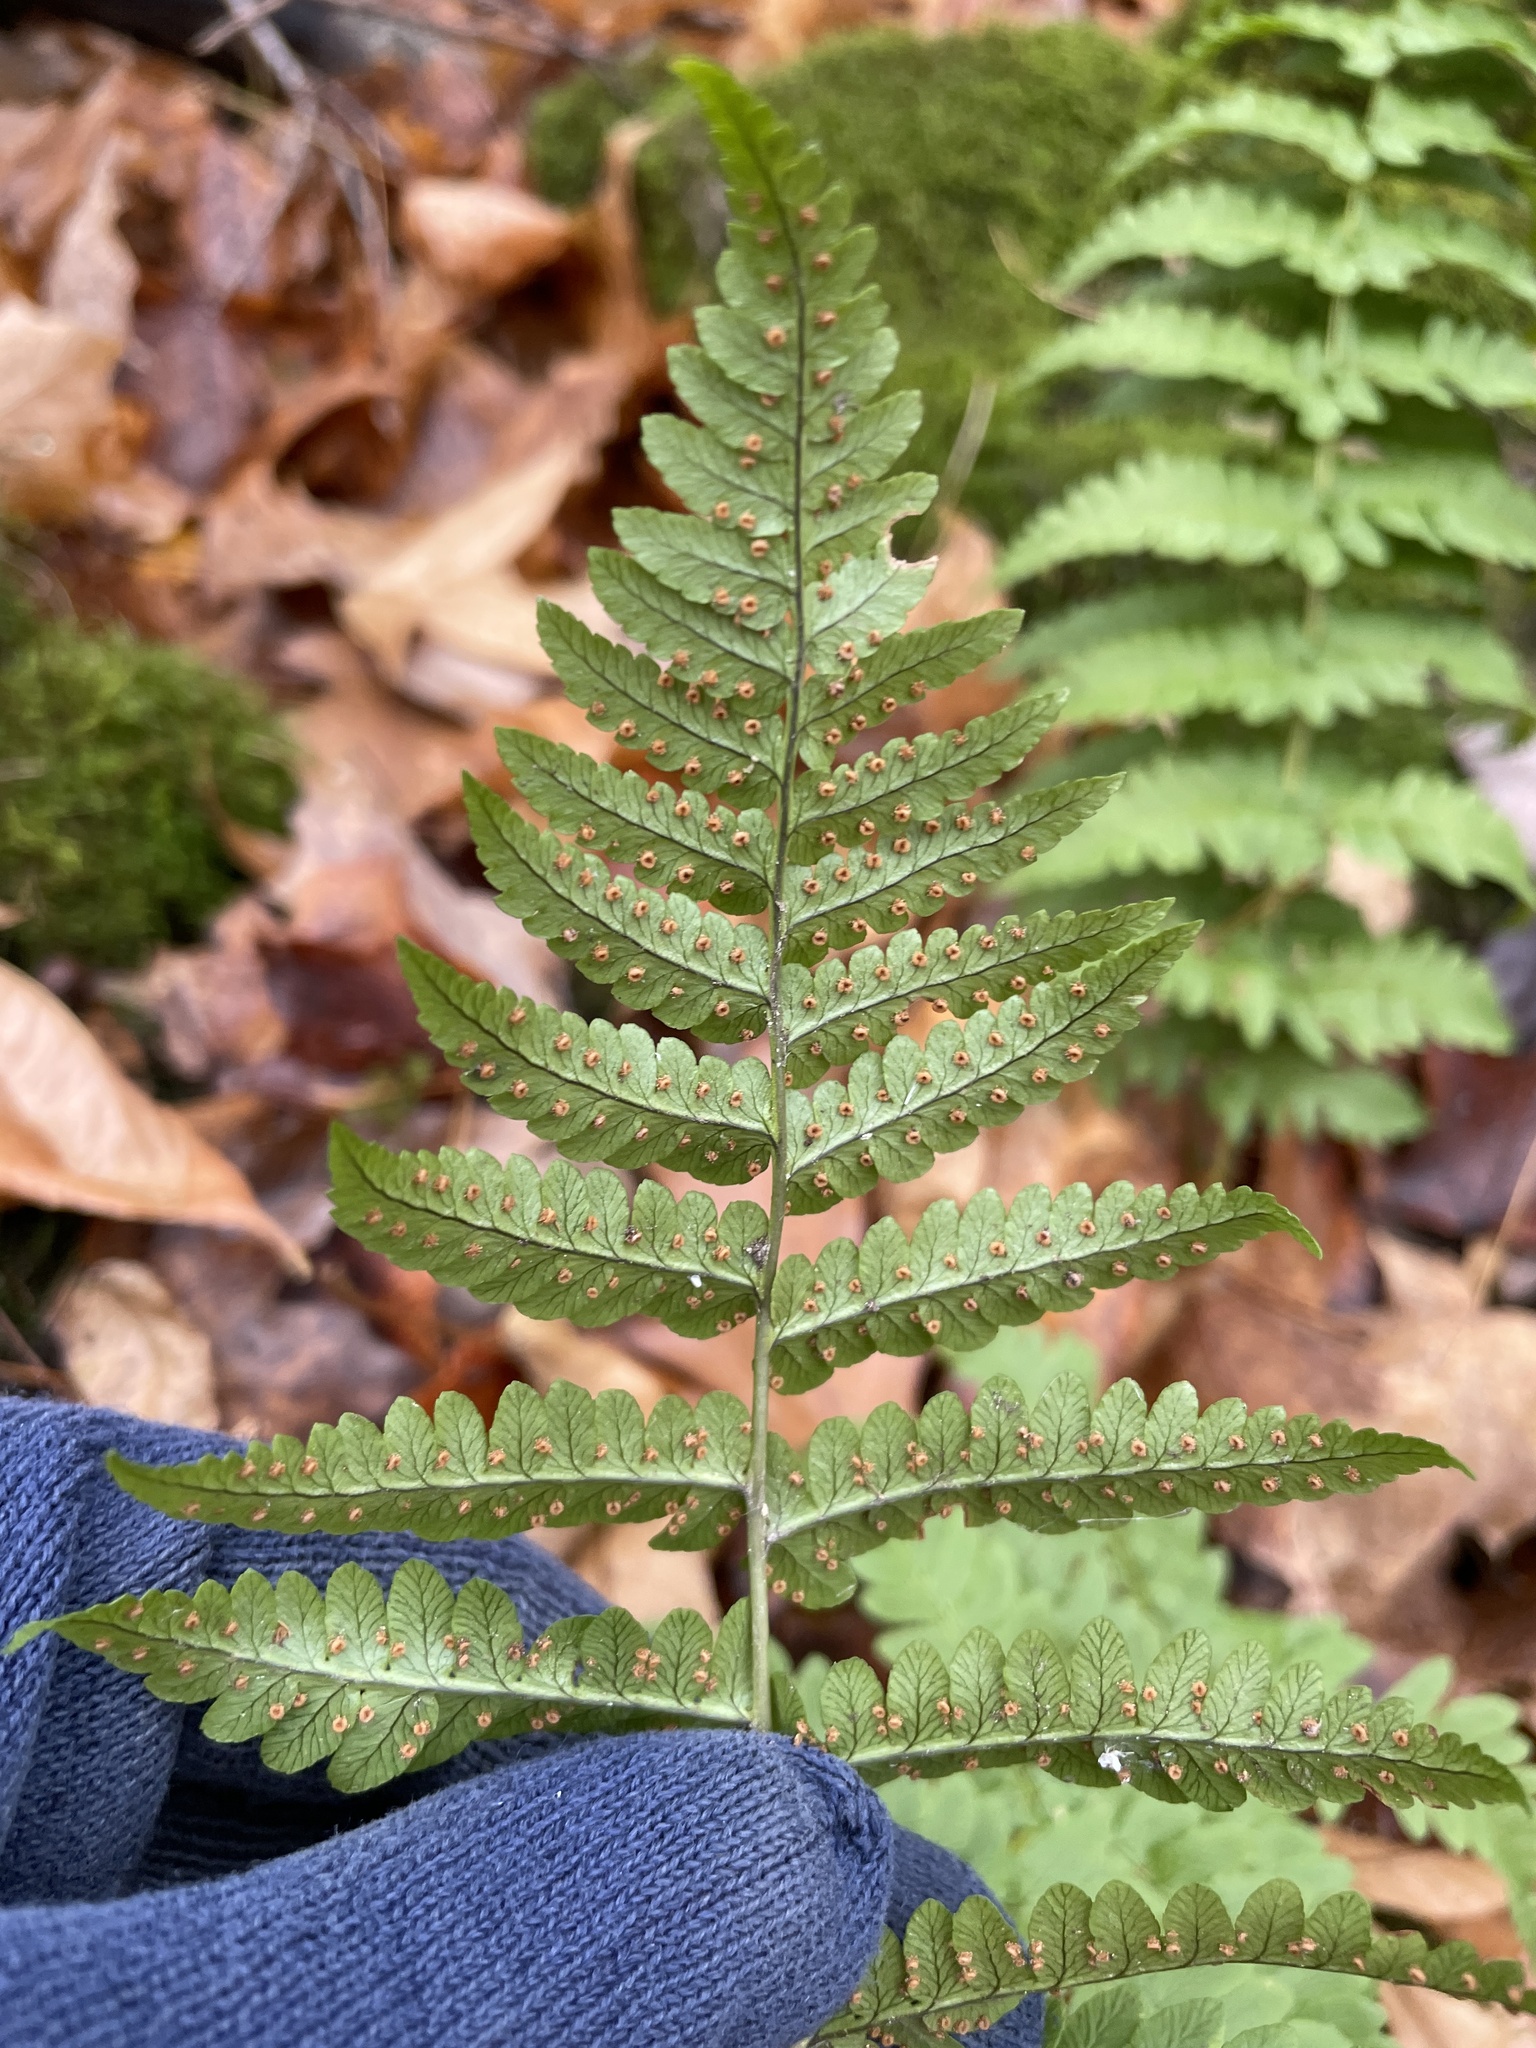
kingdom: Plantae
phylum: Tracheophyta
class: Polypodiopsida
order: Polypodiales
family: Dryopteridaceae
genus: Dryopteris
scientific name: Dryopteris marginalis
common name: Marginal wood fern
